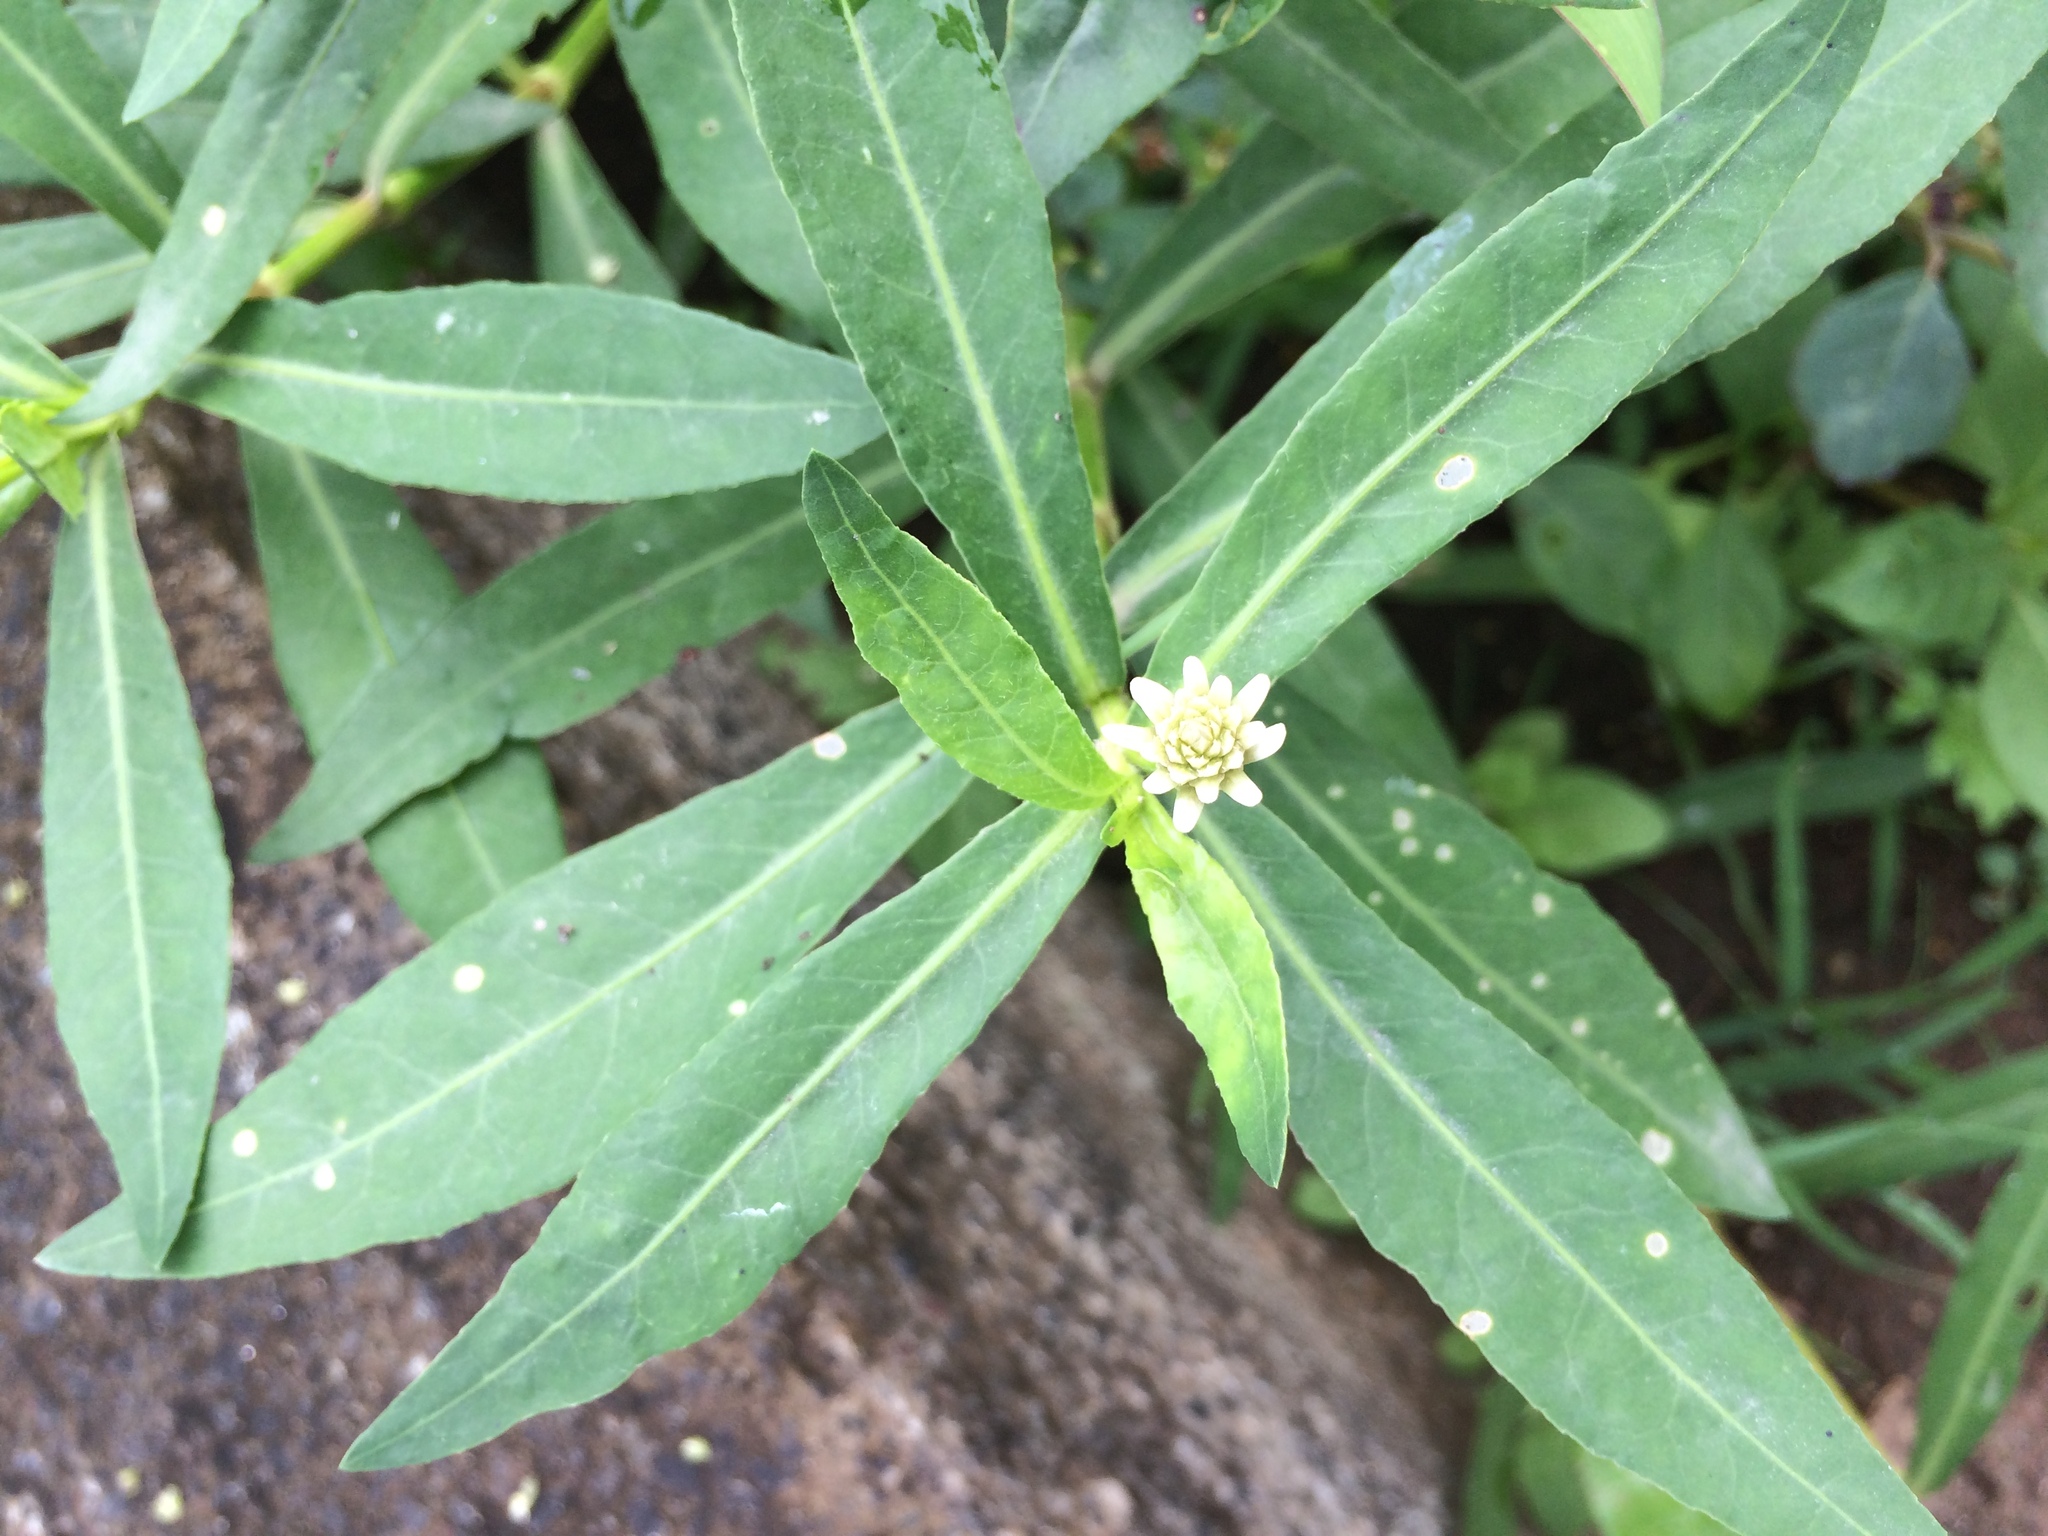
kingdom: Plantae
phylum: Tracheophyta
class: Magnoliopsida
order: Caryophyllales
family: Amaranthaceae
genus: Alternanthera
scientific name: Alternanthera philoxeroides
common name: Alligatorweed
